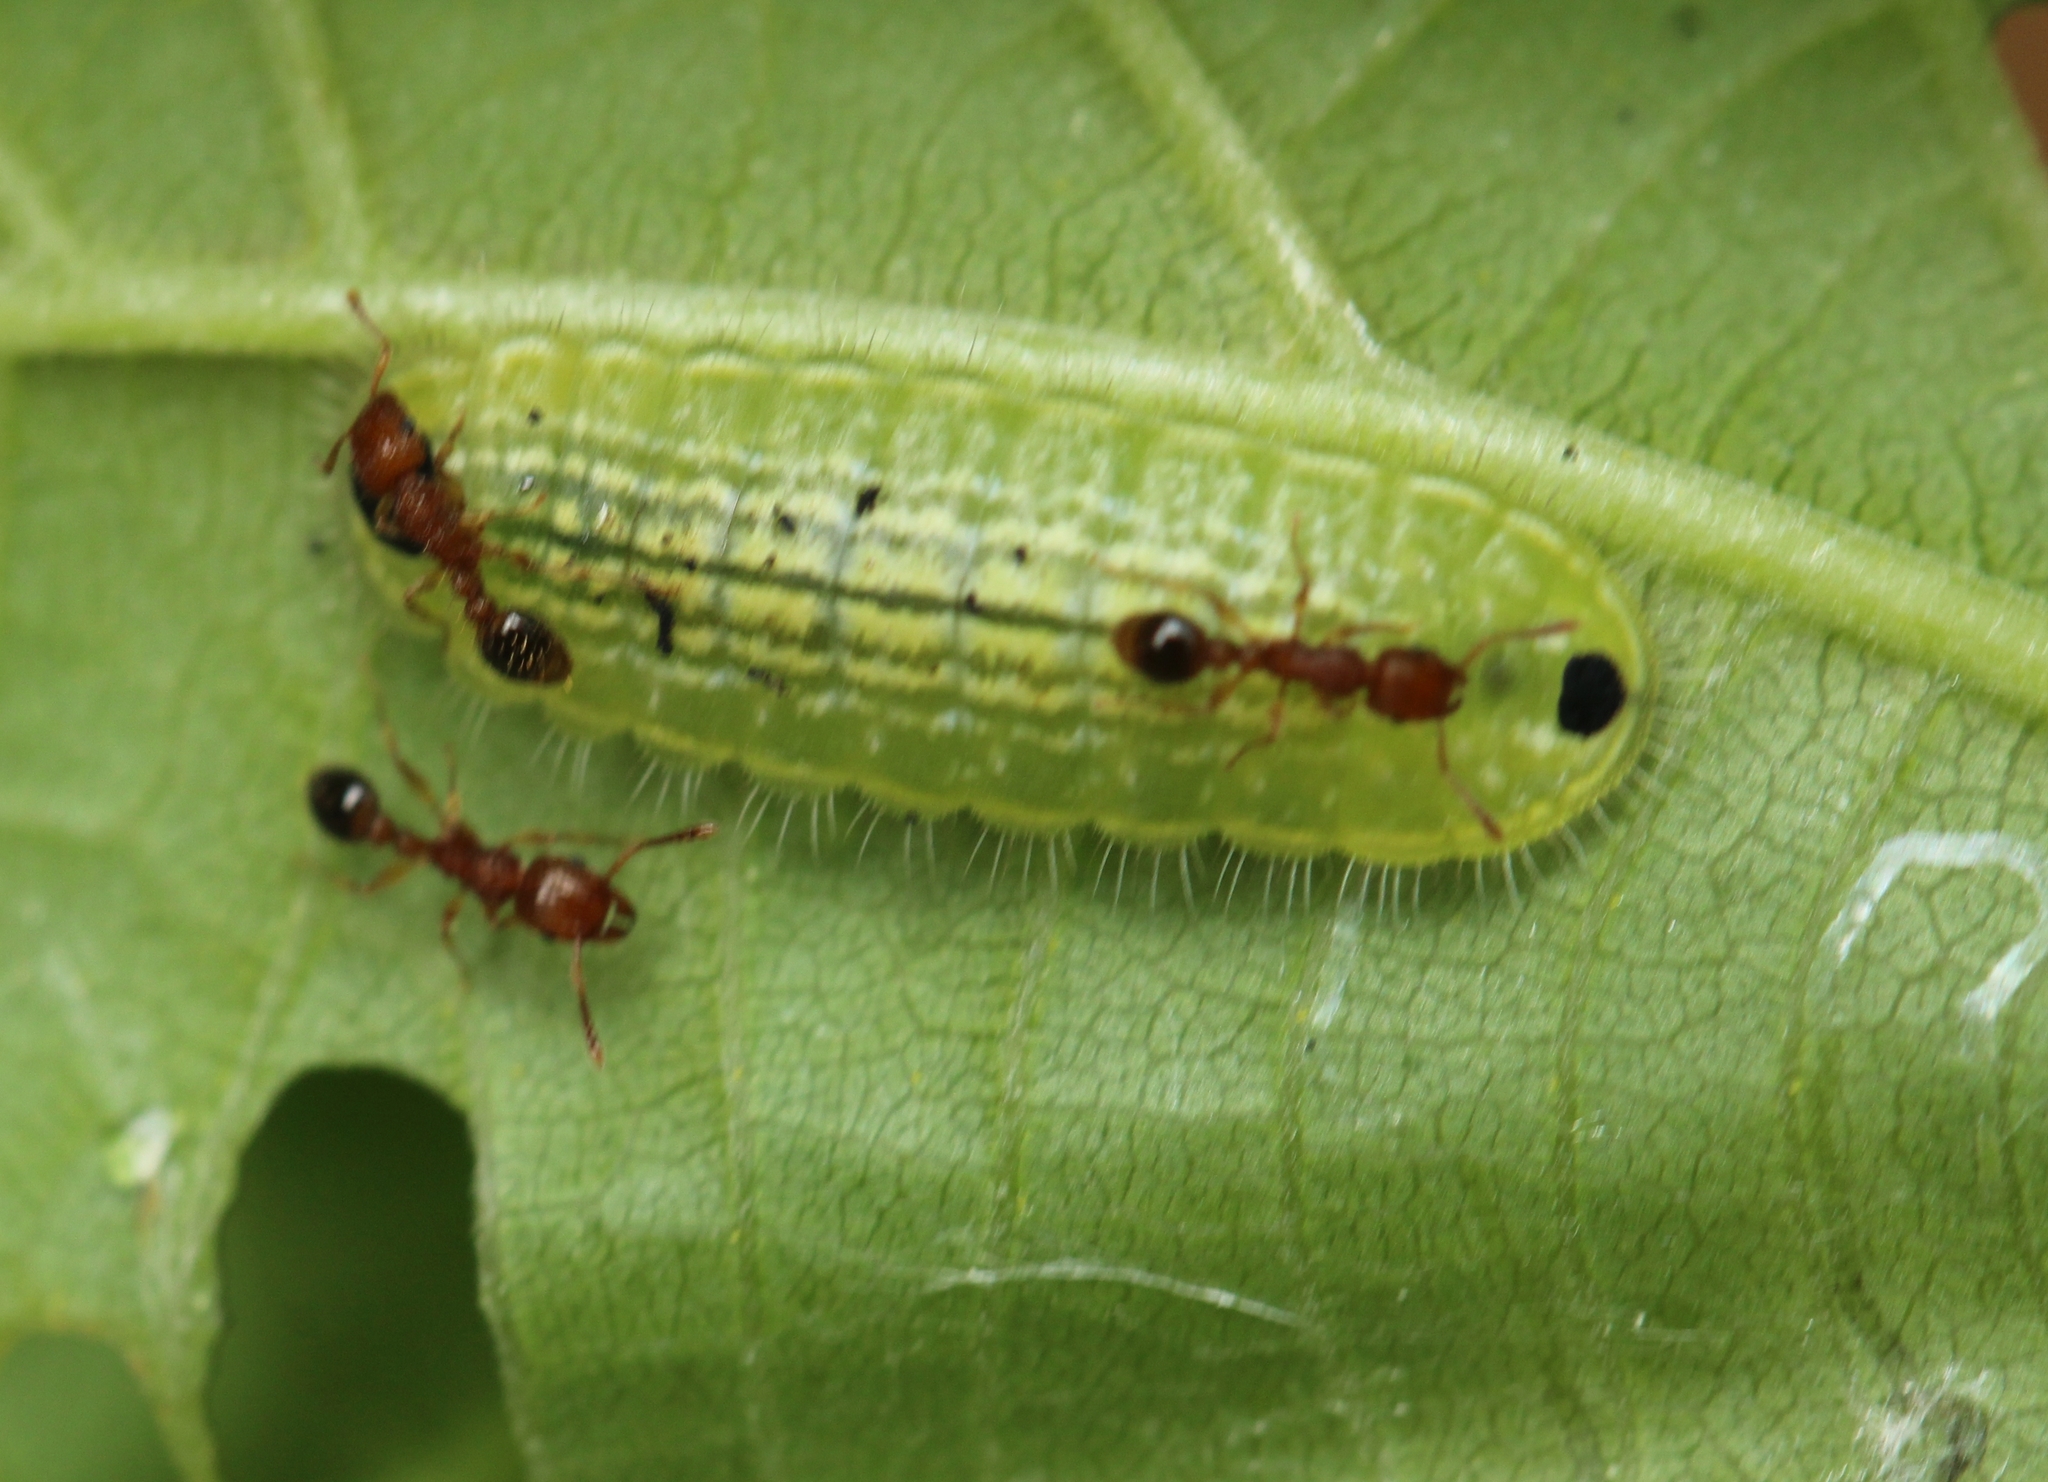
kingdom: Animalia
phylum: Arthropoda
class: Insecta
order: Lepidoptera
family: Lycaenidae
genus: Thaduka
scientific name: Thaduka multicaudata
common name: Many-tailed oakblue
